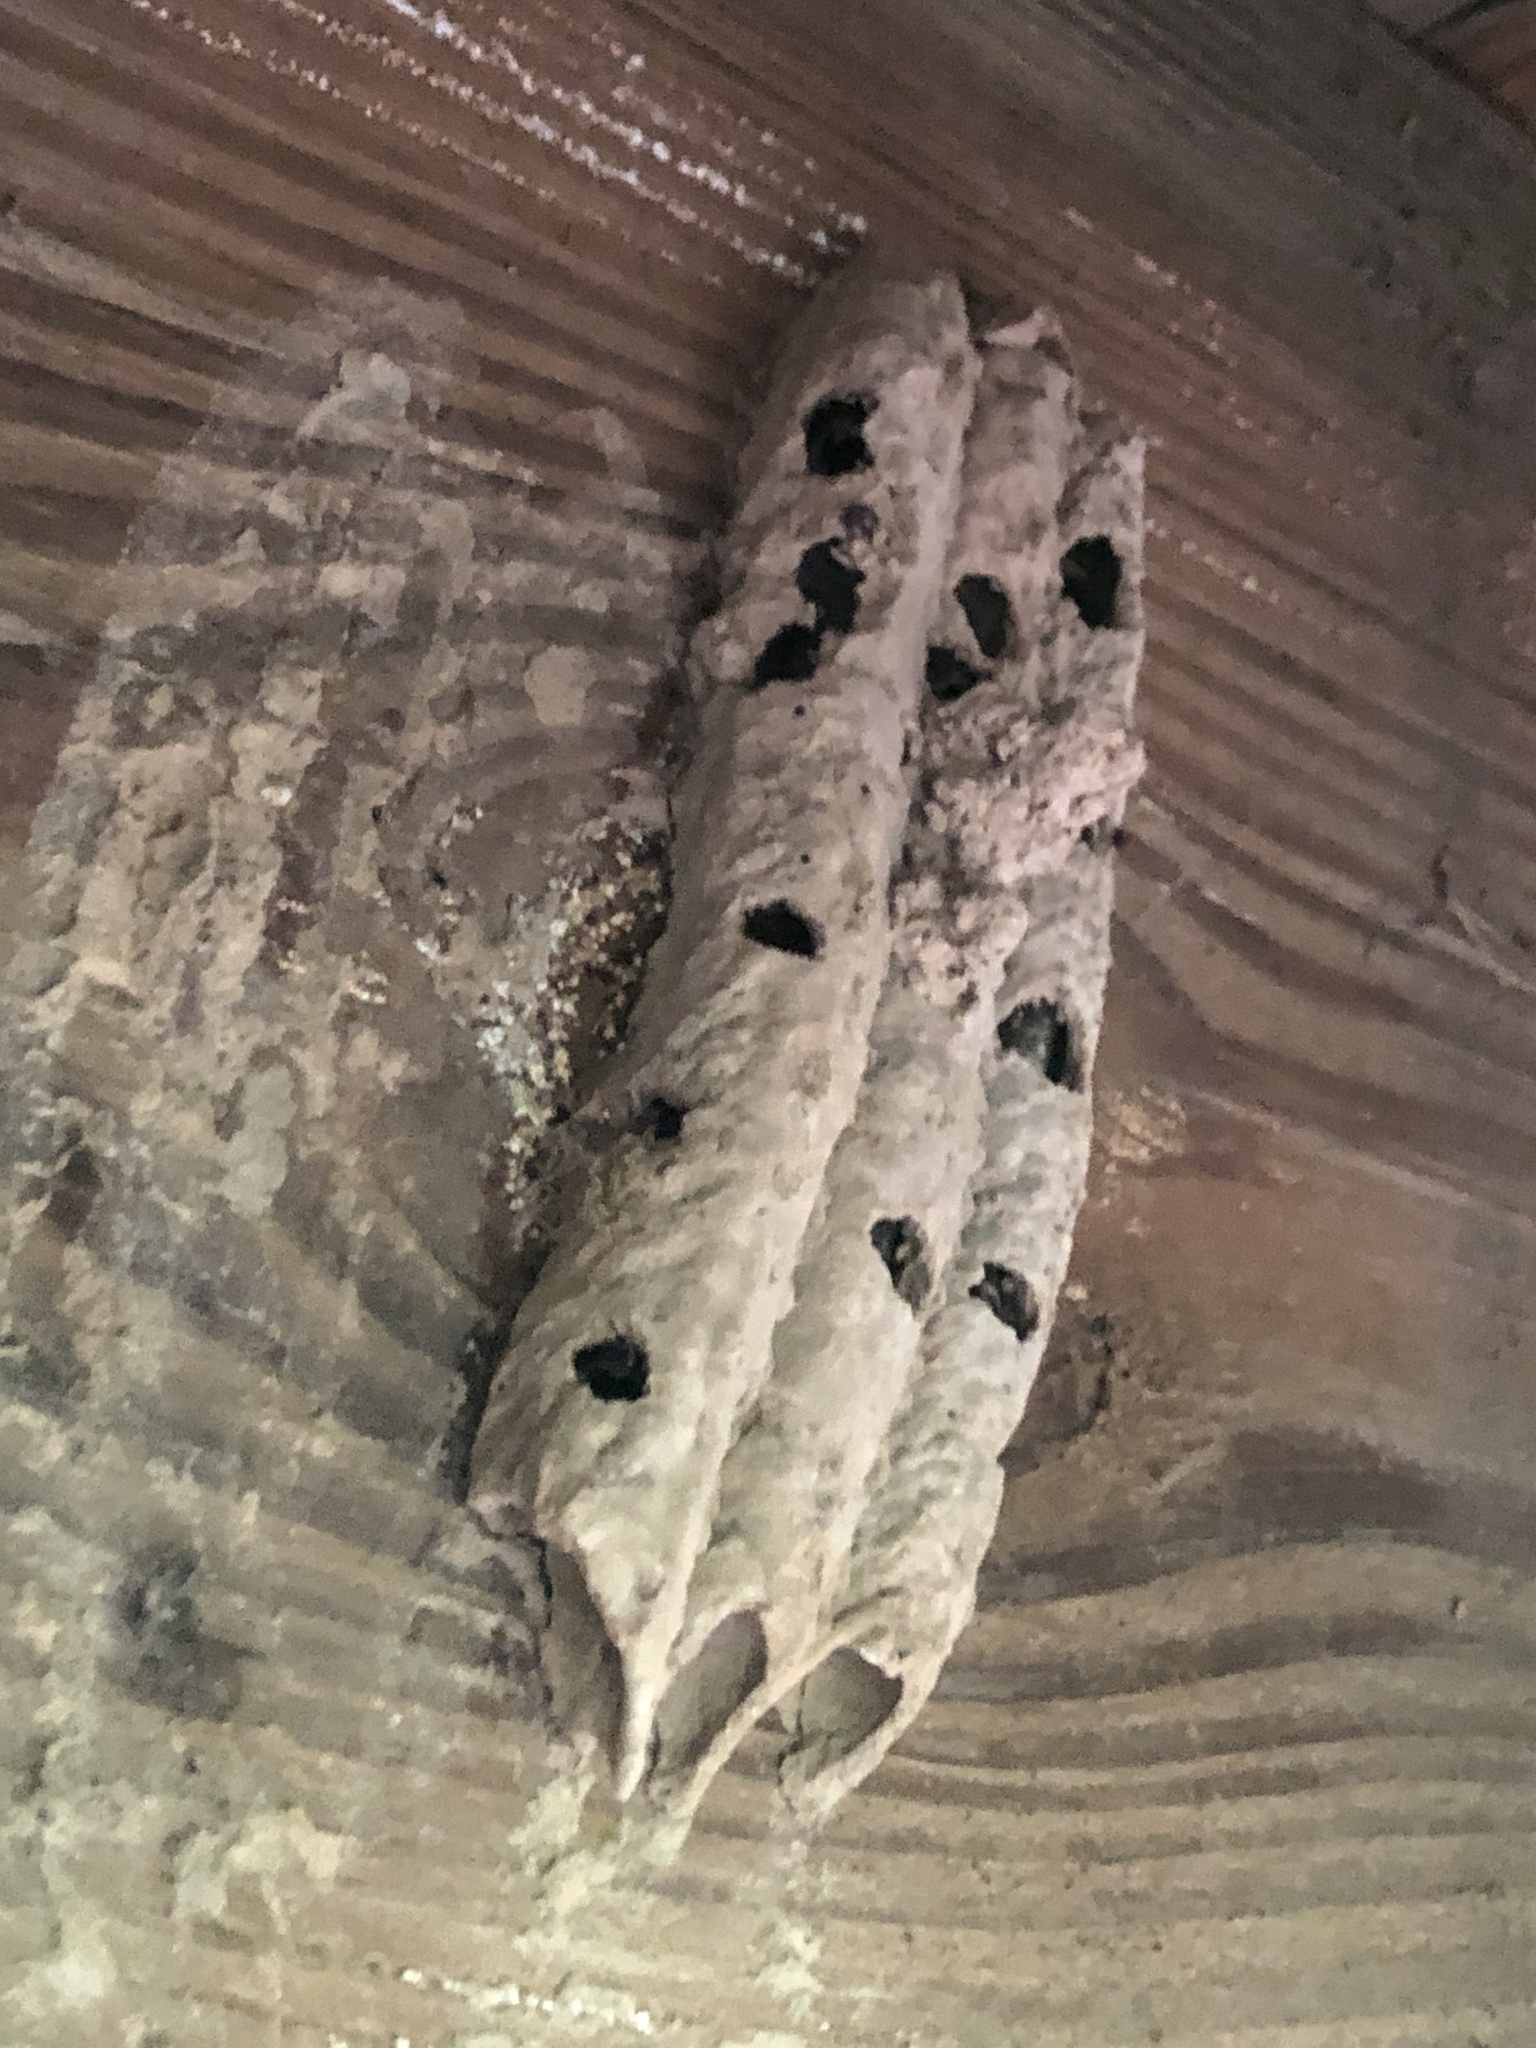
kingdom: Animalia
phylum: Arthropoda
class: Insecta
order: Hymenoptera
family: Crabronidae
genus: Trypoxylon
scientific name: Trypoxylon politum
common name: Organ-pipe mud-dauber wasp
